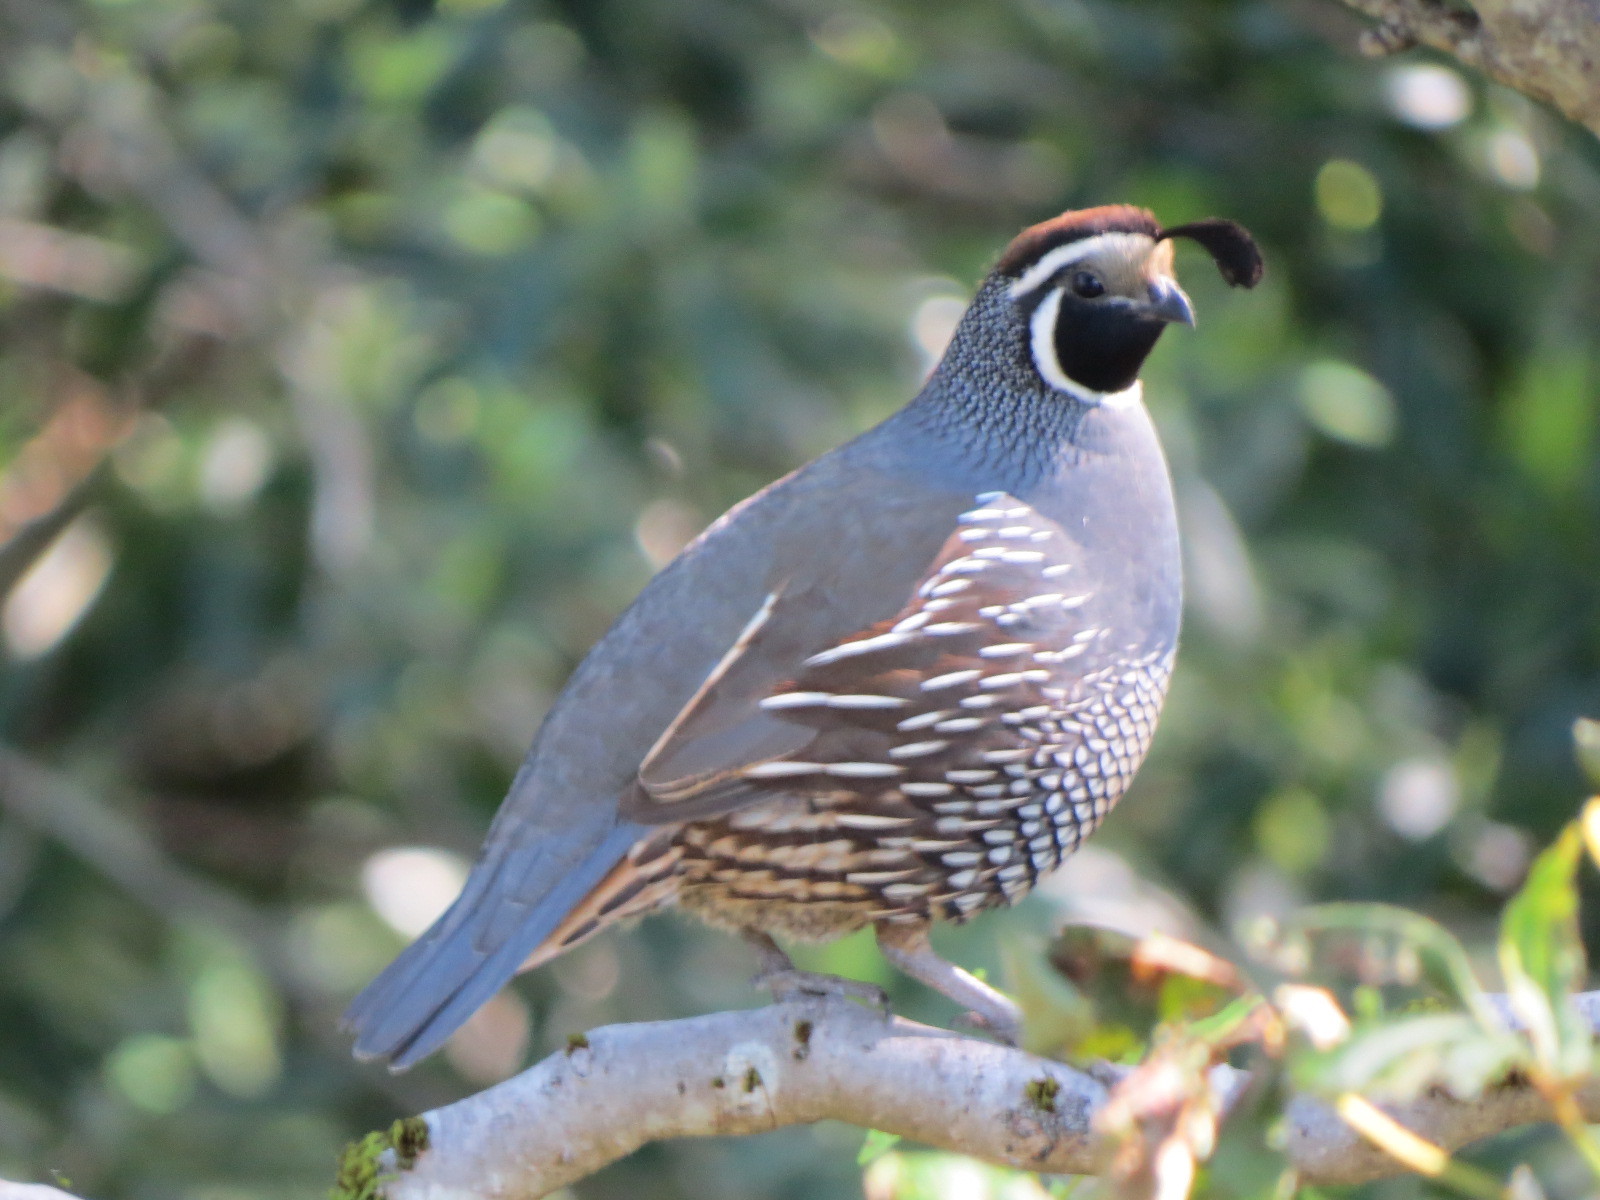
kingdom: Animalia
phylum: Chordata
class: Aves
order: Galliformes
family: Odontophoridae
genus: Callipepla
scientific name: Callipepla californica
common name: California quail
